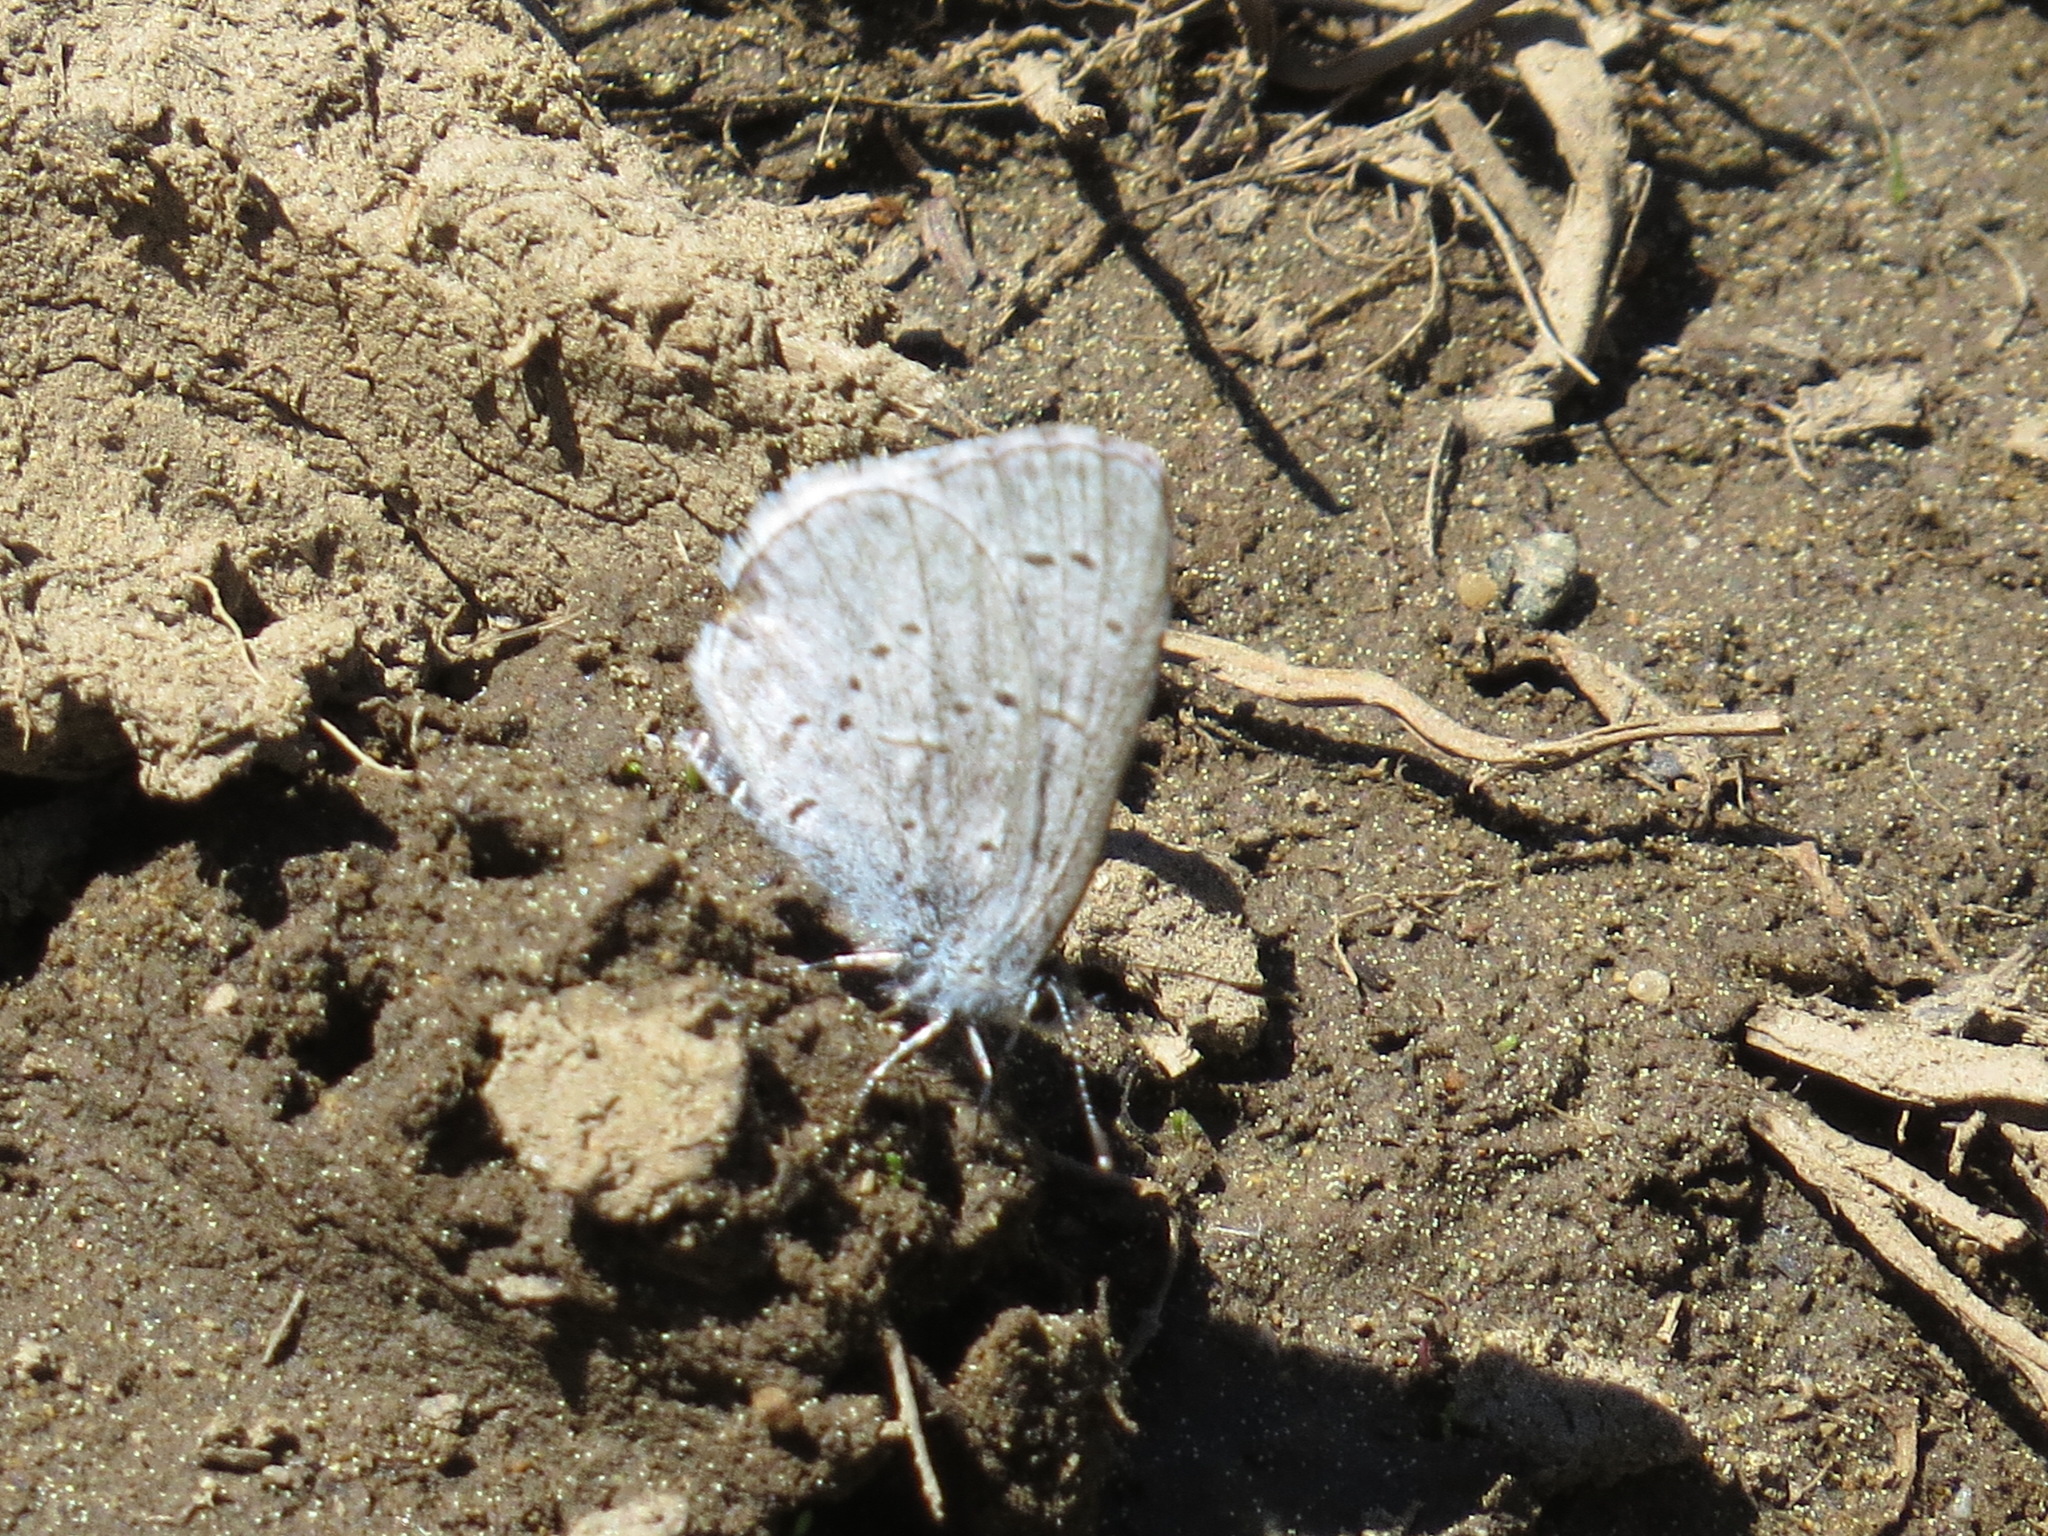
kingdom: Animalia
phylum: Arthropoda
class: Insecta
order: Lepidoptera
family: Lycaenidae
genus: Celastrina
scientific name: Celastrina ladon
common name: Spring azure
